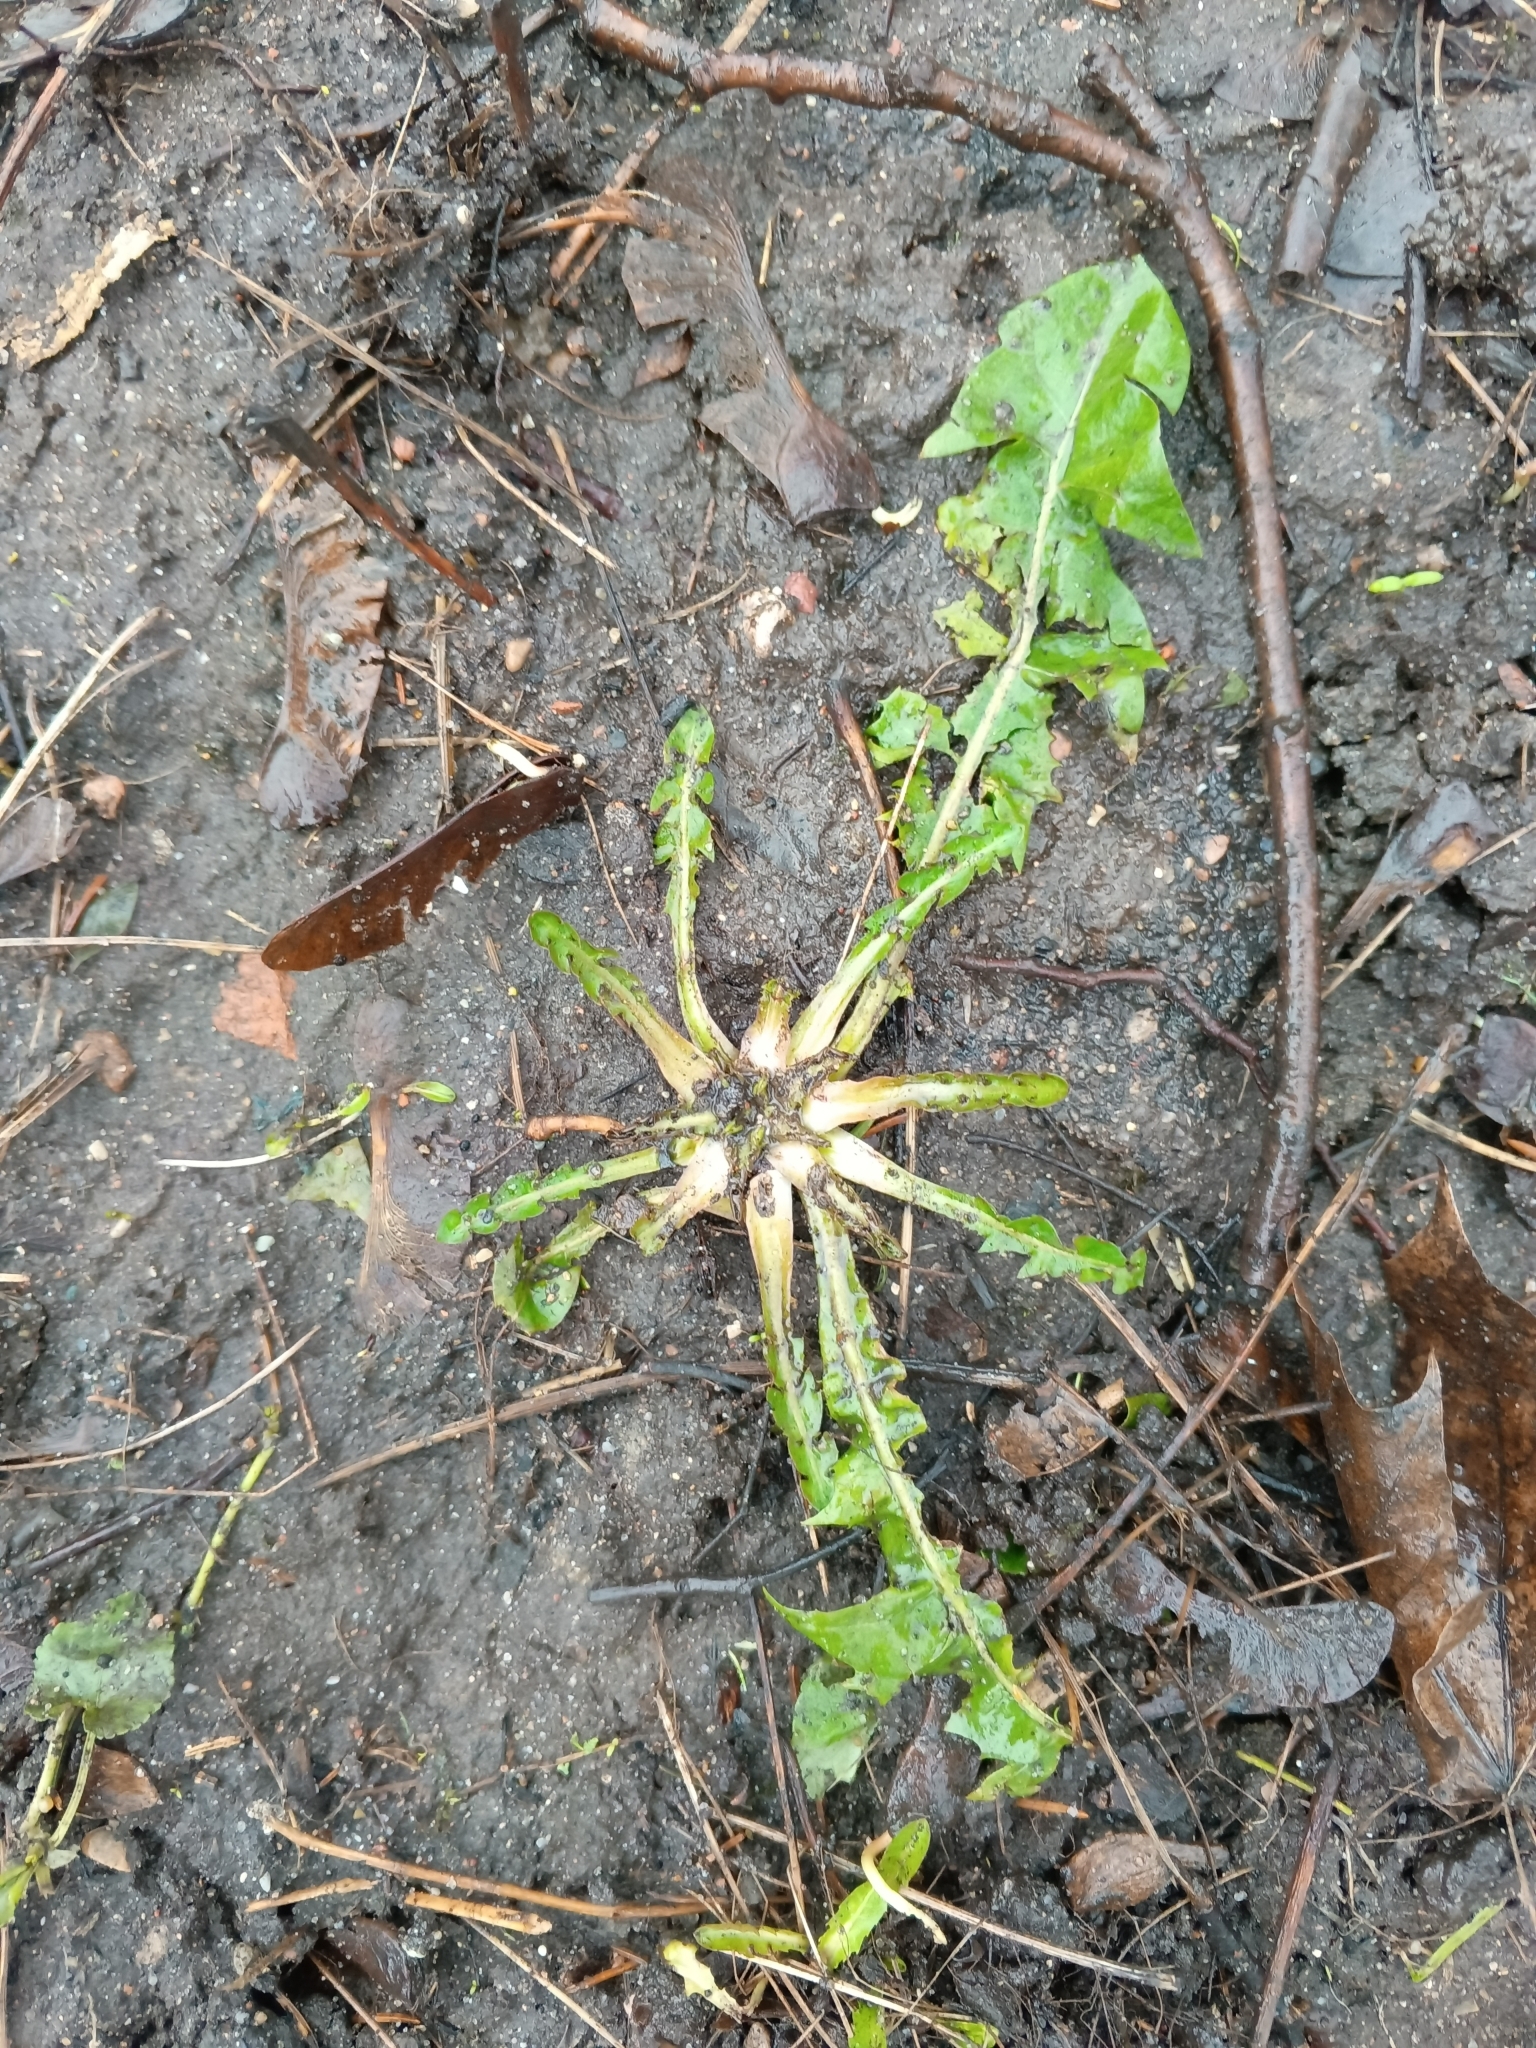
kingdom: Plantae
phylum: Tracheophyta
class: Magnoliopsida
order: Asterales
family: Asteraceae
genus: Taraxacum
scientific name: Taraxacum officinale
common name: Common dandelion
